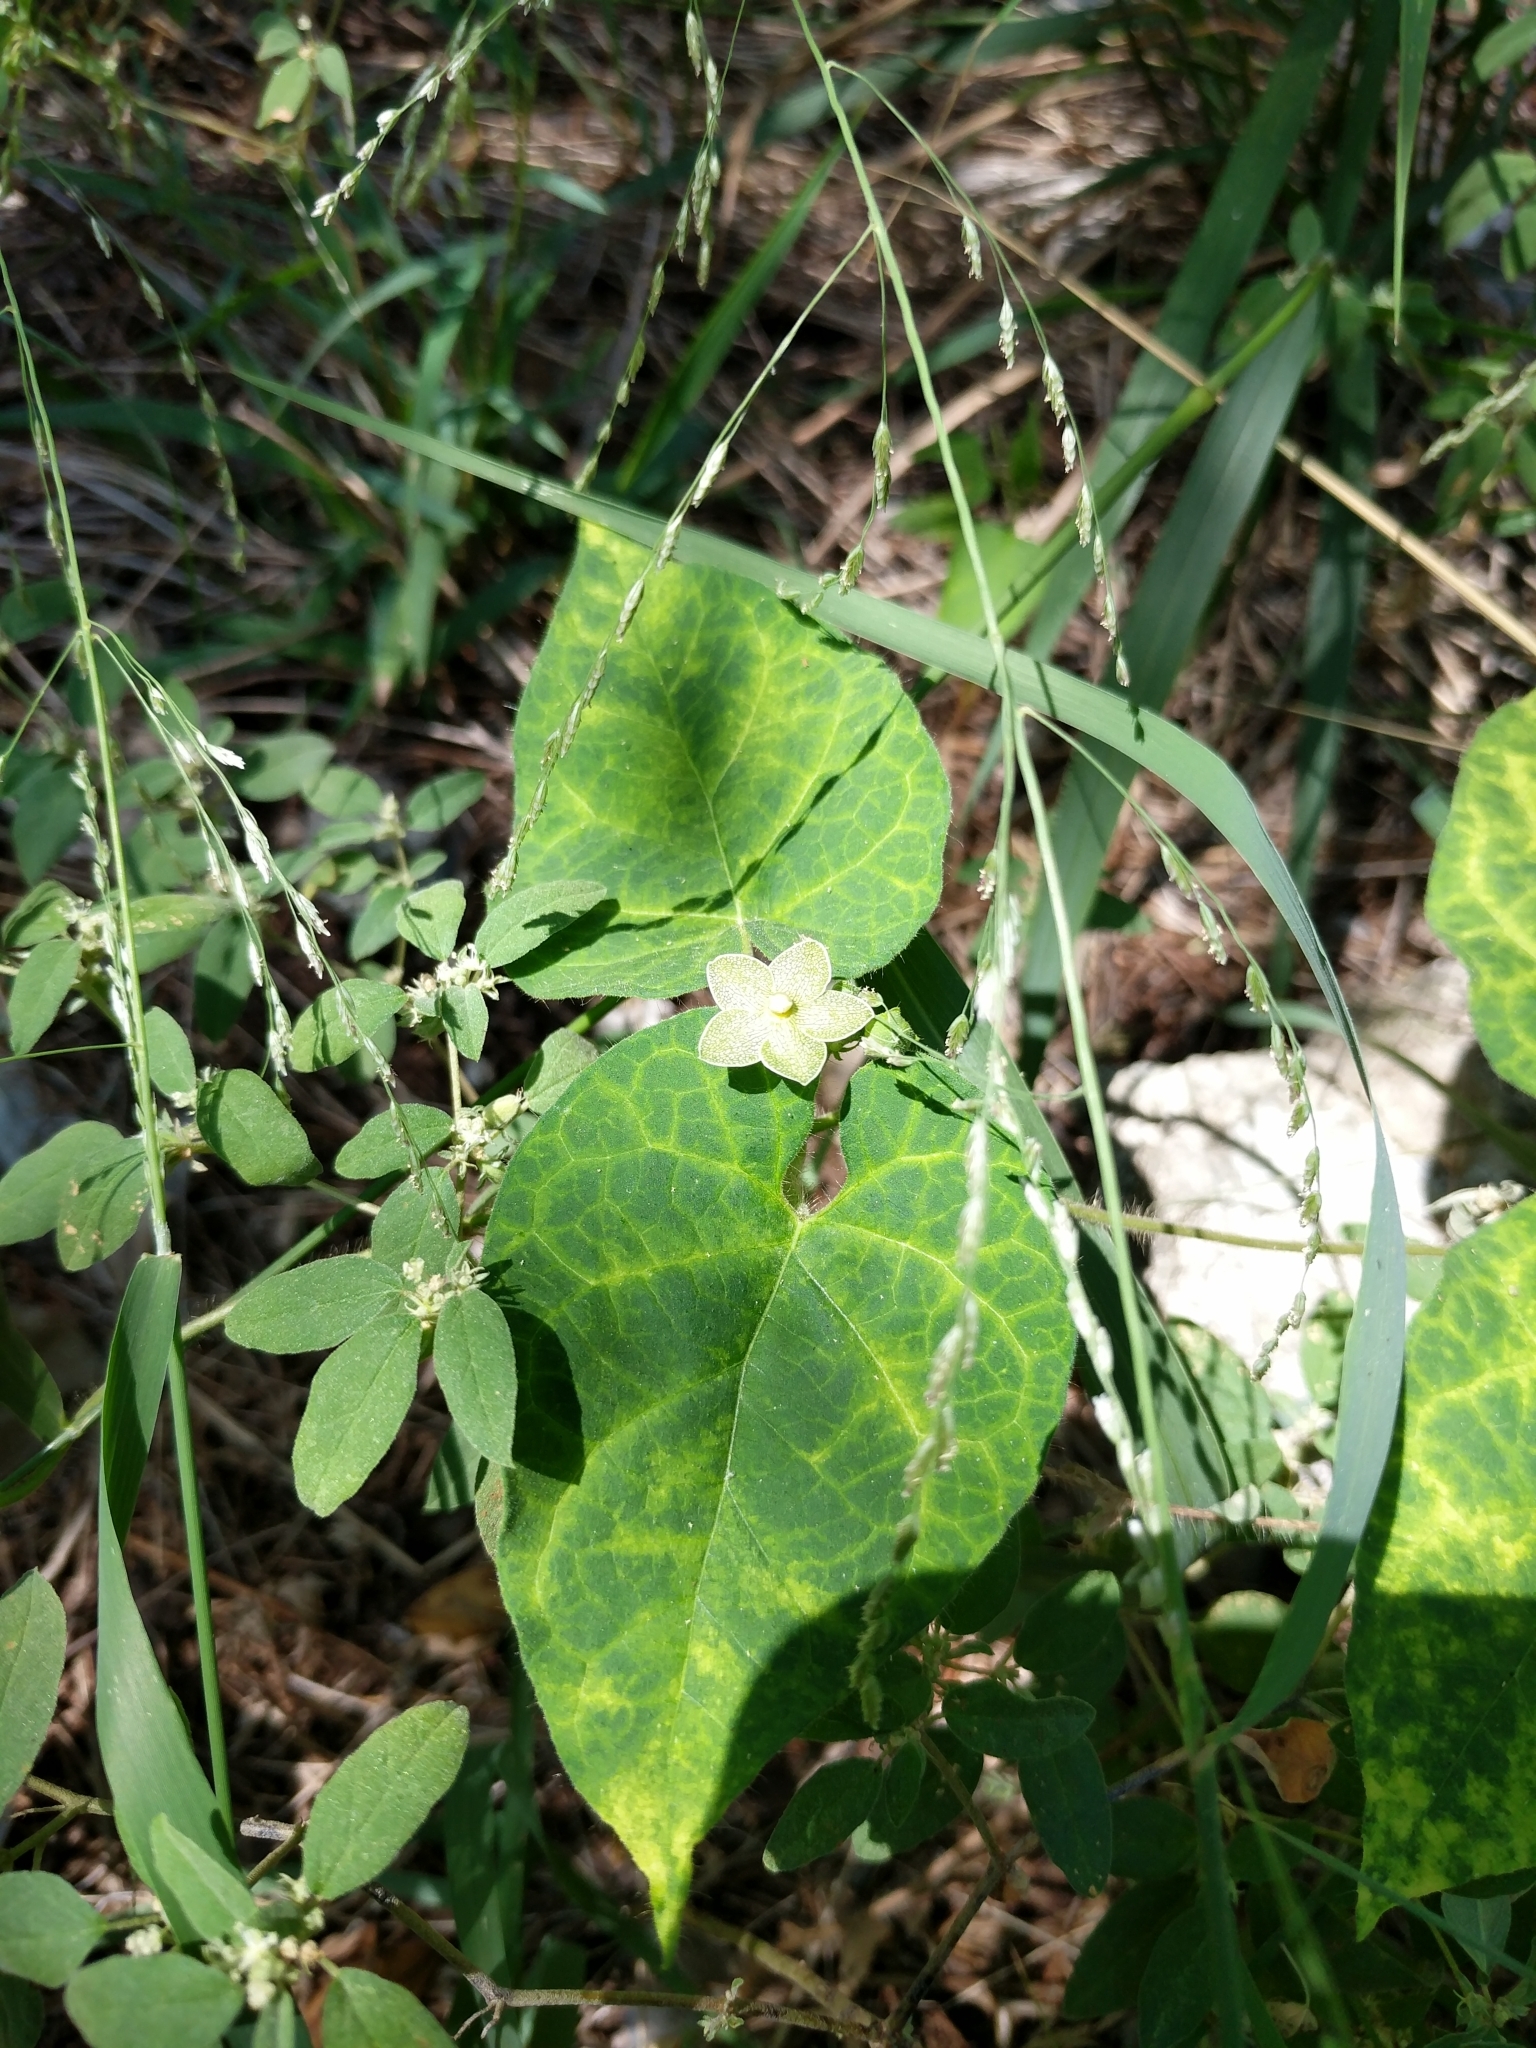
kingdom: Plantae
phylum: Tracheophyta
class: Magnoliopsida
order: Gentianales
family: Apocynaceae
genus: Dictyanthus
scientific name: Dictyanthus reticulatus
